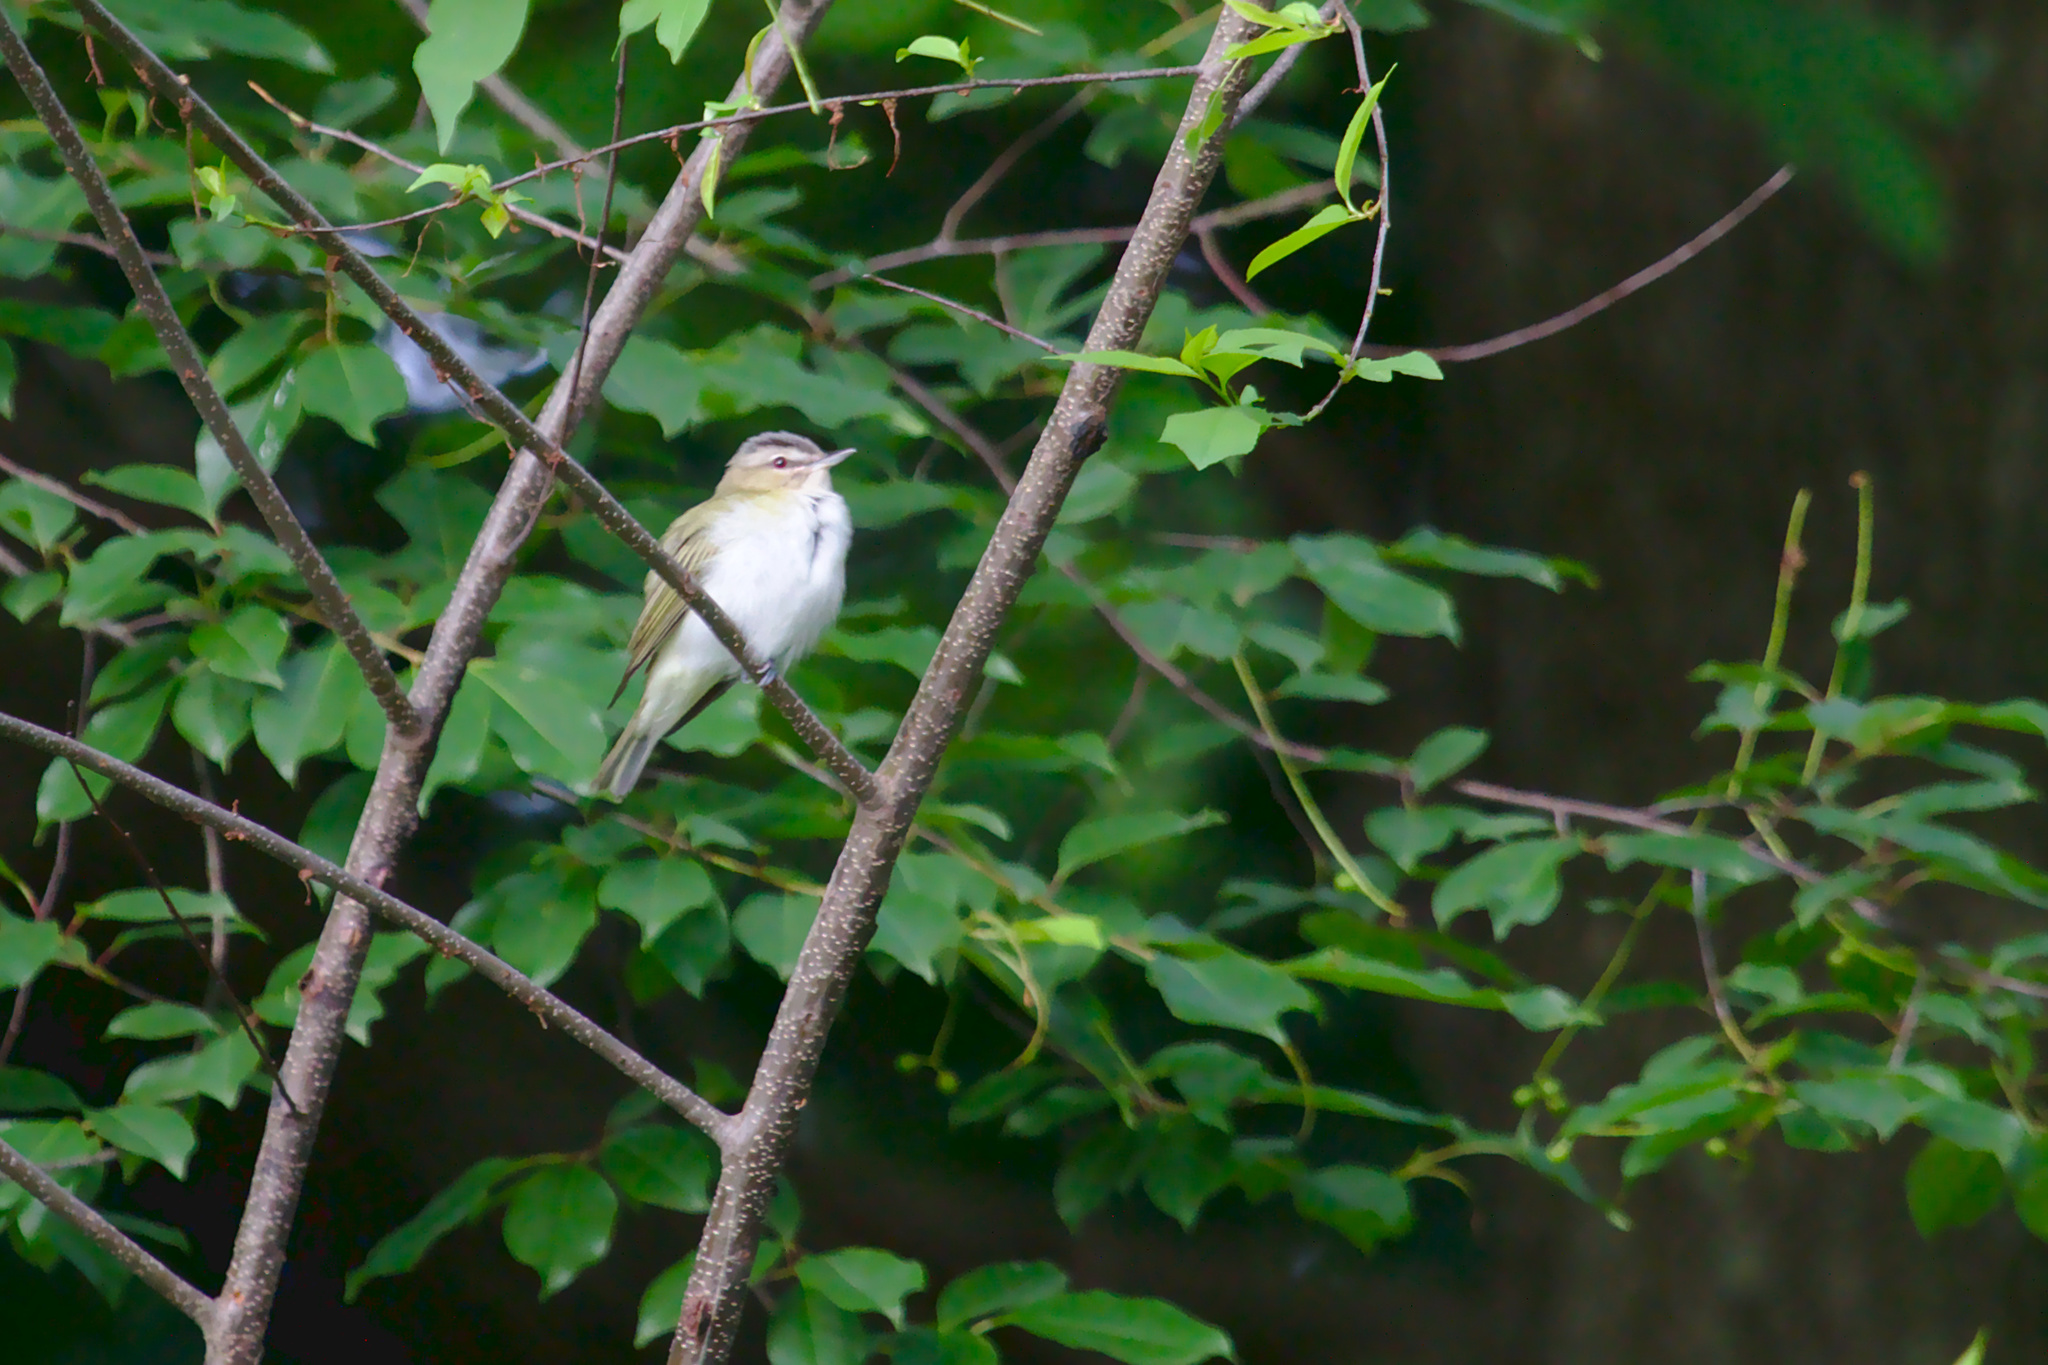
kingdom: Animalia
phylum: Chordata
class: Aves
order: Passeriformes
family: Vireonidae
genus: Vireo
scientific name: Vireo olivaceus
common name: Red-eyed vireo
